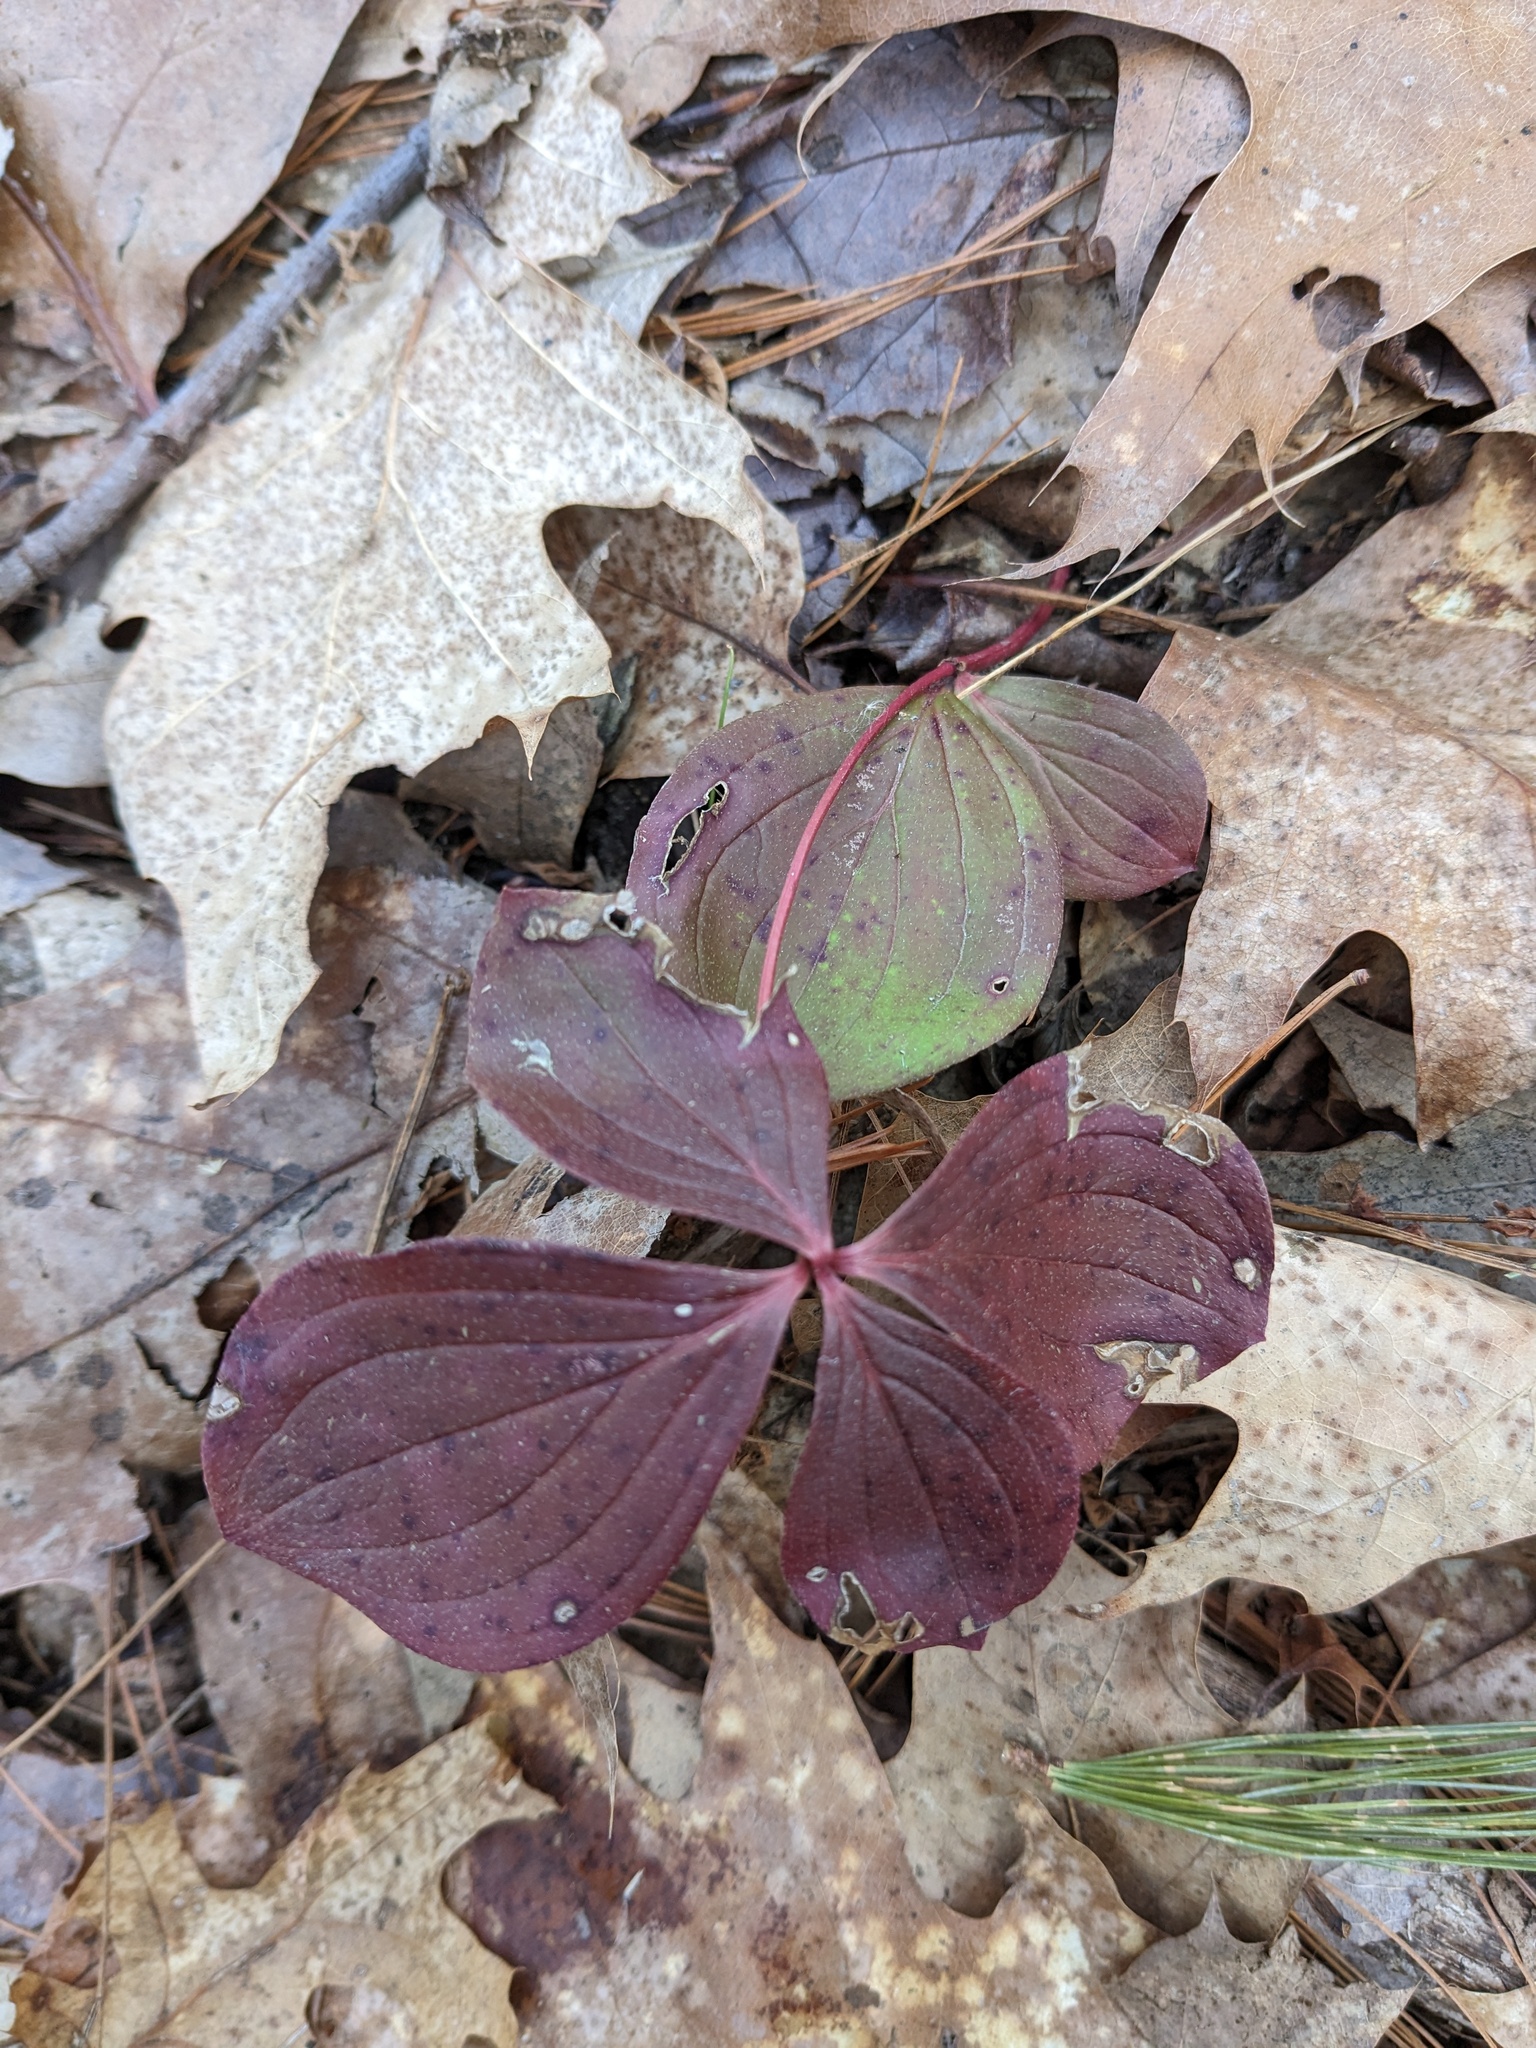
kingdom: Plantae
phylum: Tracheophyta
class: Magnoliopsida
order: Cornales
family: Cornaceae
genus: Cornus
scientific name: Cornus canadensis
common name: Creeping dogwood
